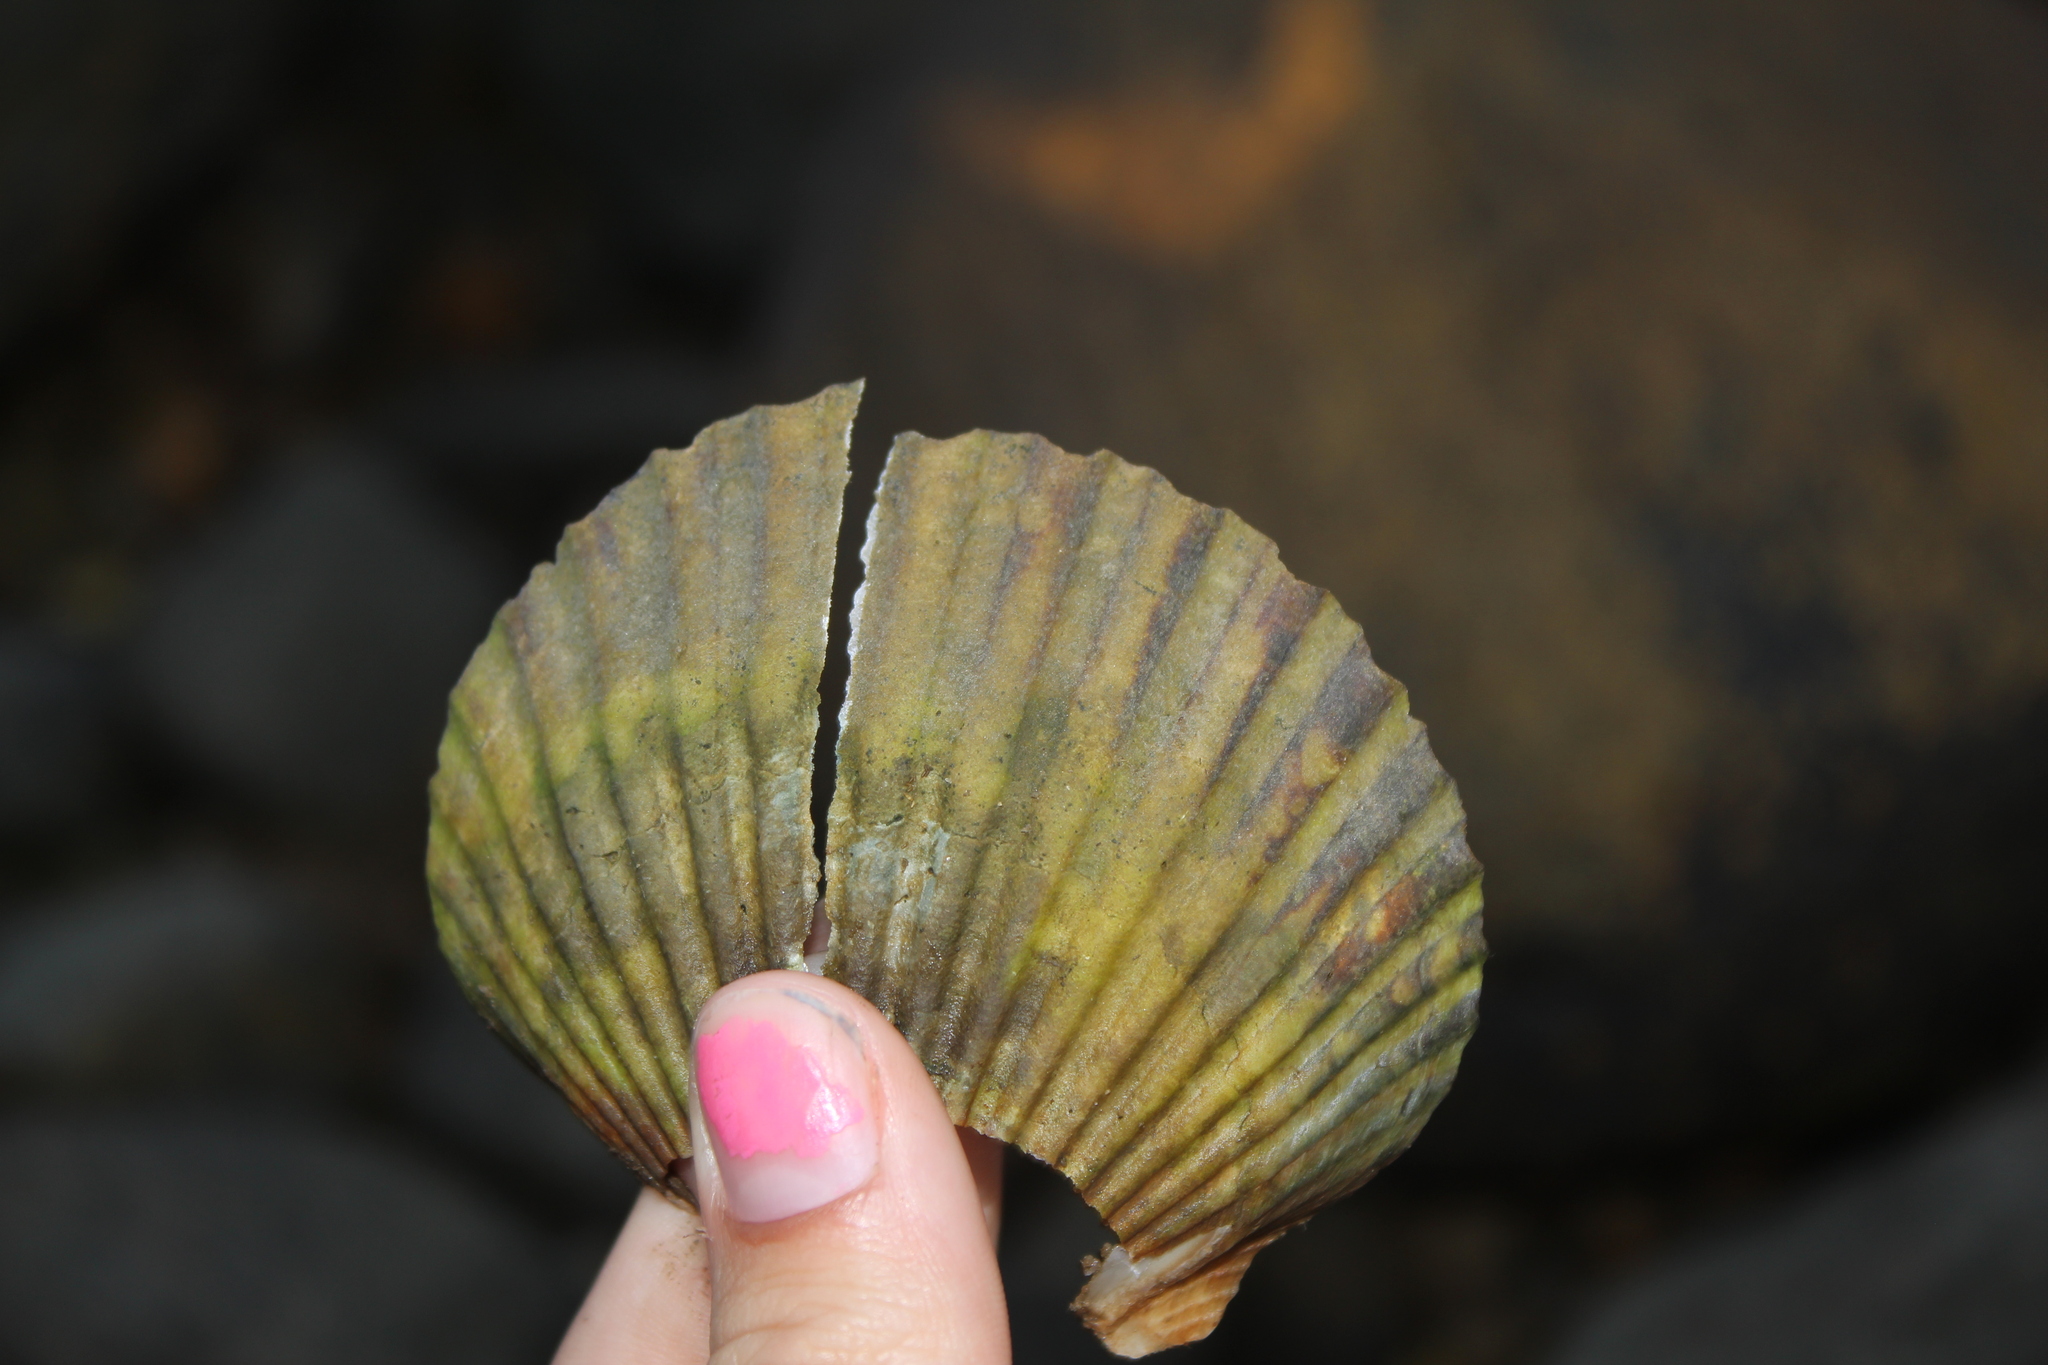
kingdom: Animalia
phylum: Mollusca
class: Bivalvia
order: Pectinida
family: Pectinidae
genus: Argopecten
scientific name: Argopecten irradians
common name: Atlantic bay scallop
